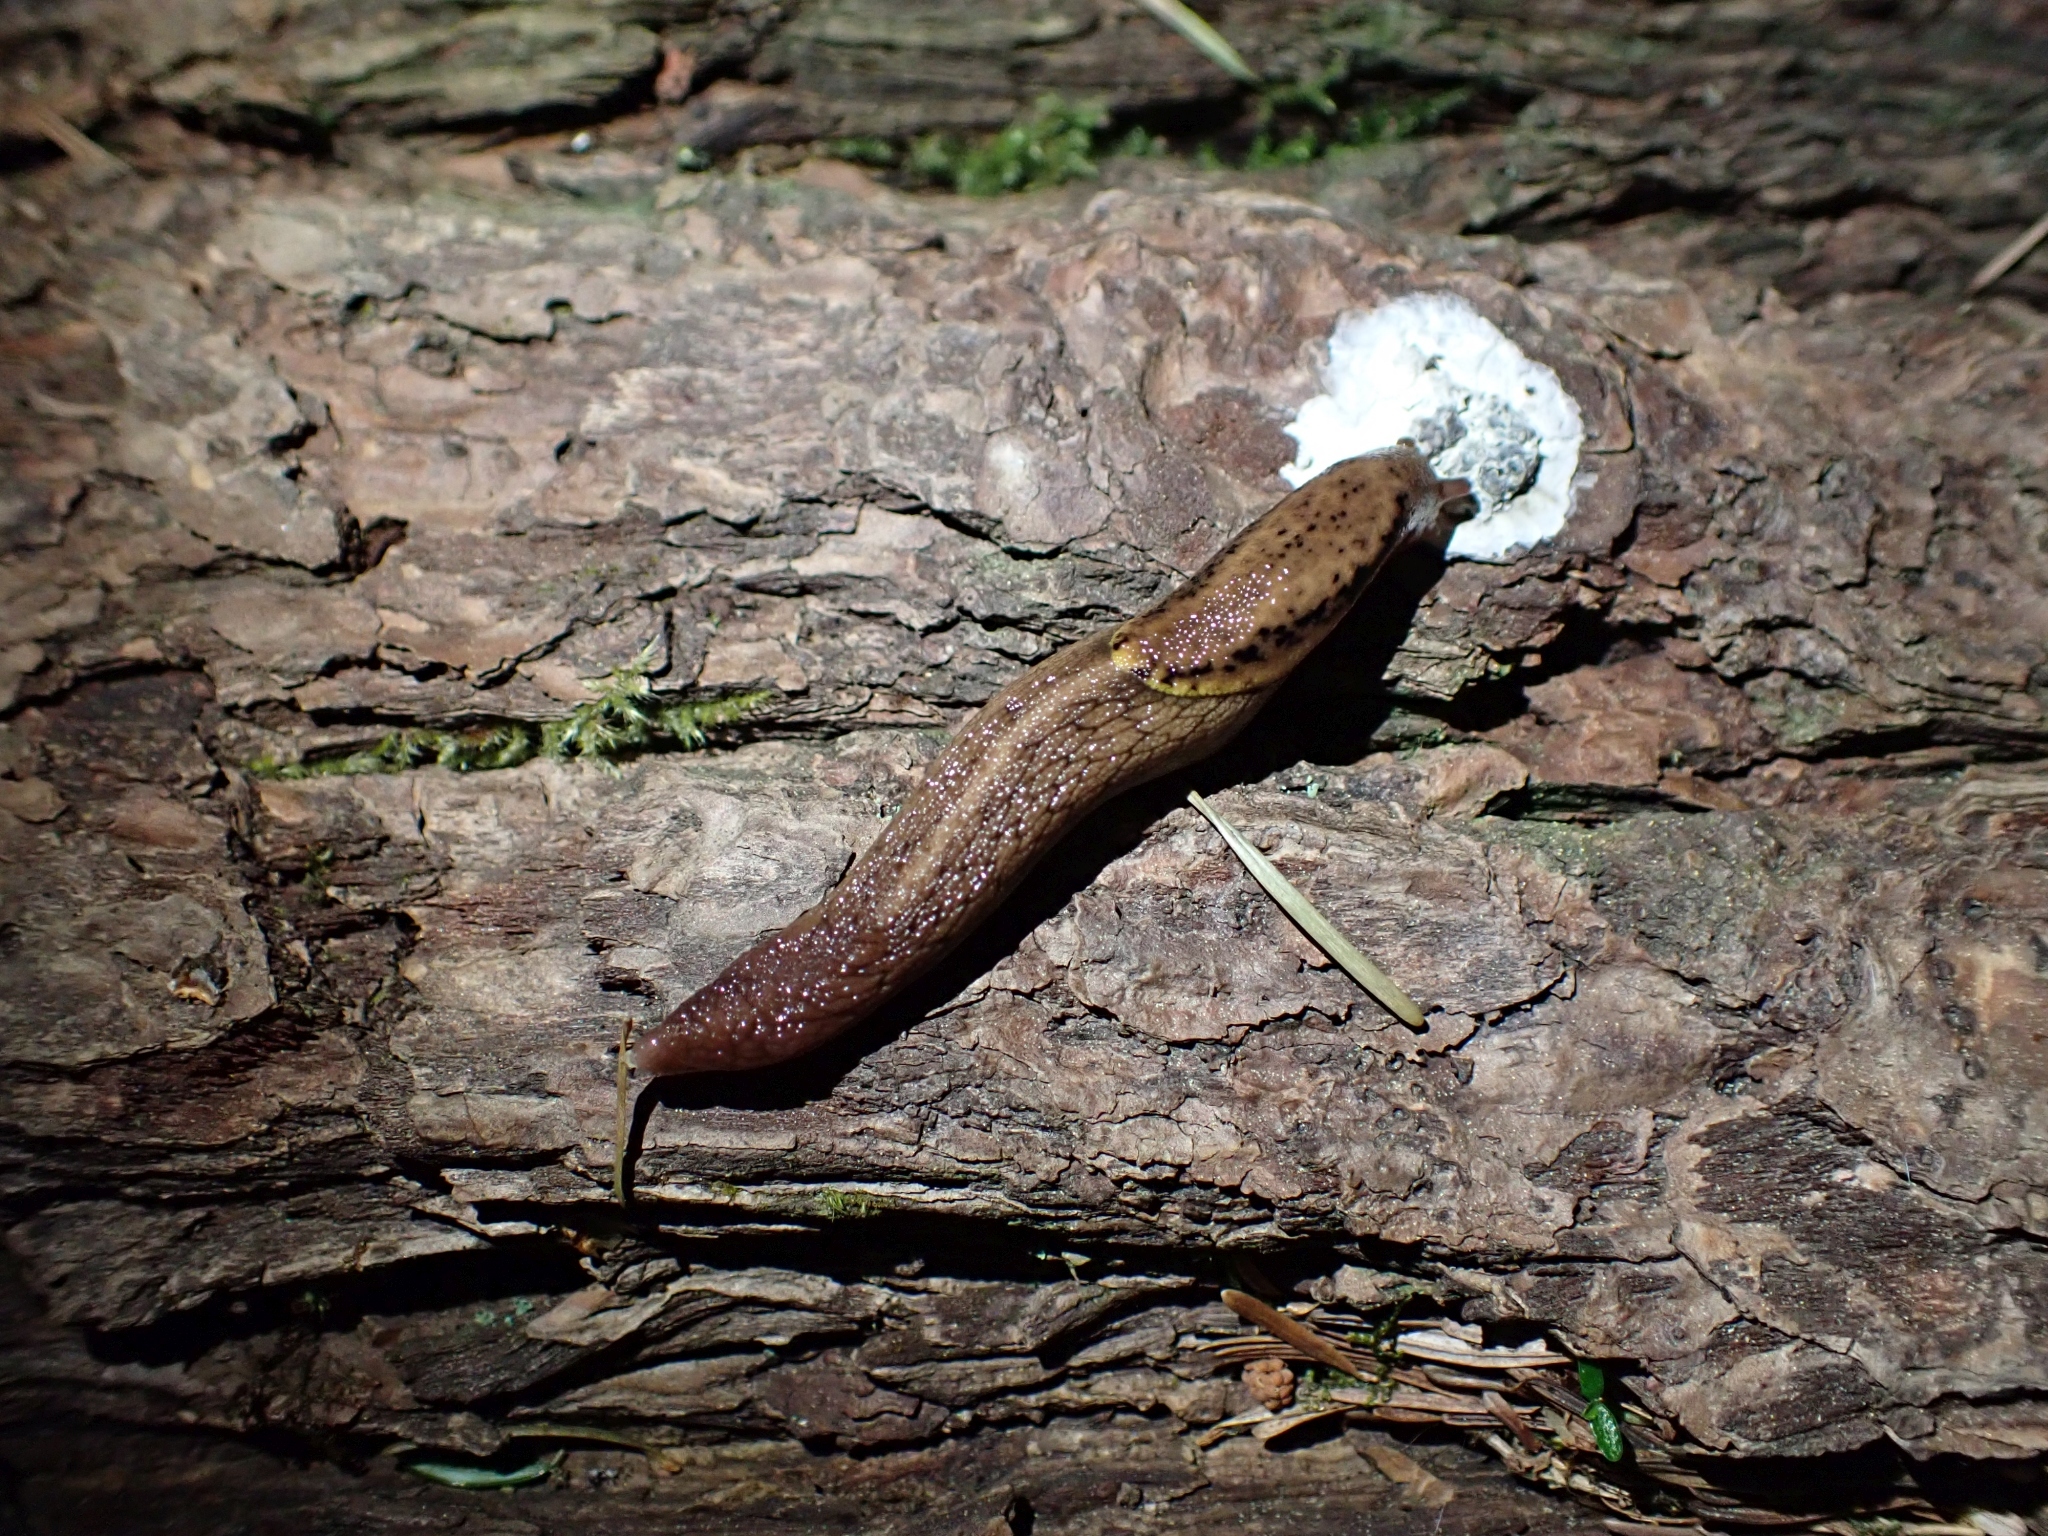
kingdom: Animalia
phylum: Mollusca
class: Gastropoda
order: Stylommatophora
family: Ariolimacidae
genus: Prophysaon
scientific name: Prophysaon foliolatum
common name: Yellow-bordered taildropper
